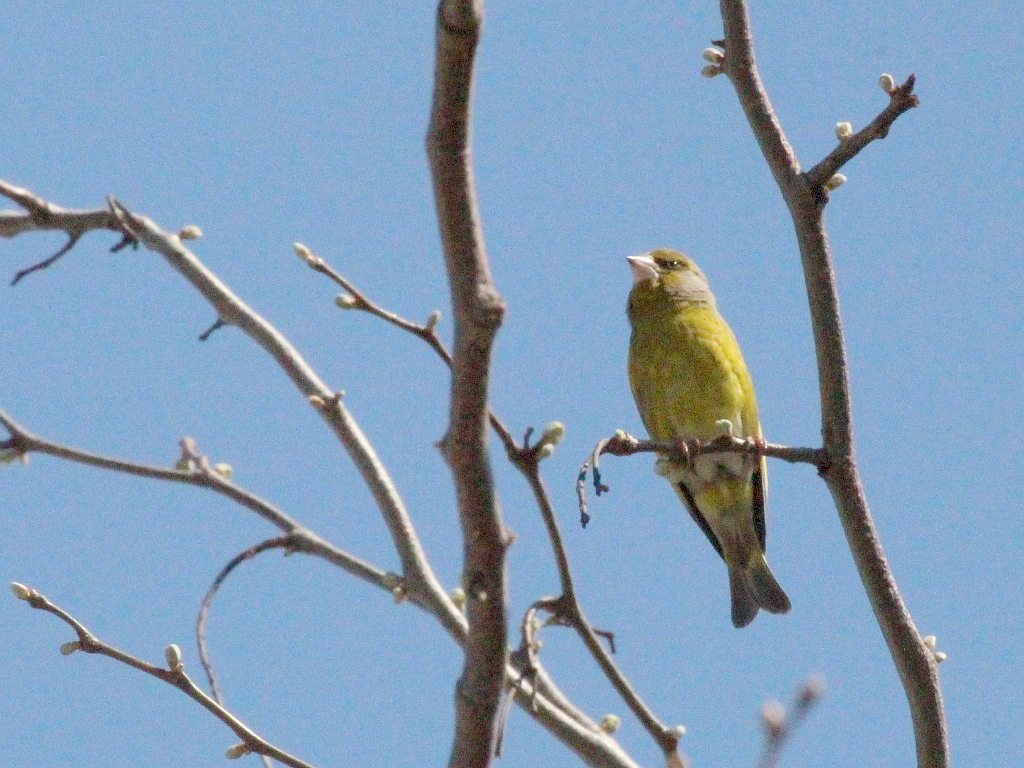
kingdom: Plantae
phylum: Tracheophyta
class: Liliopsida
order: Poales
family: Poaceae
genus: Chloris
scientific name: Chloris chloris
